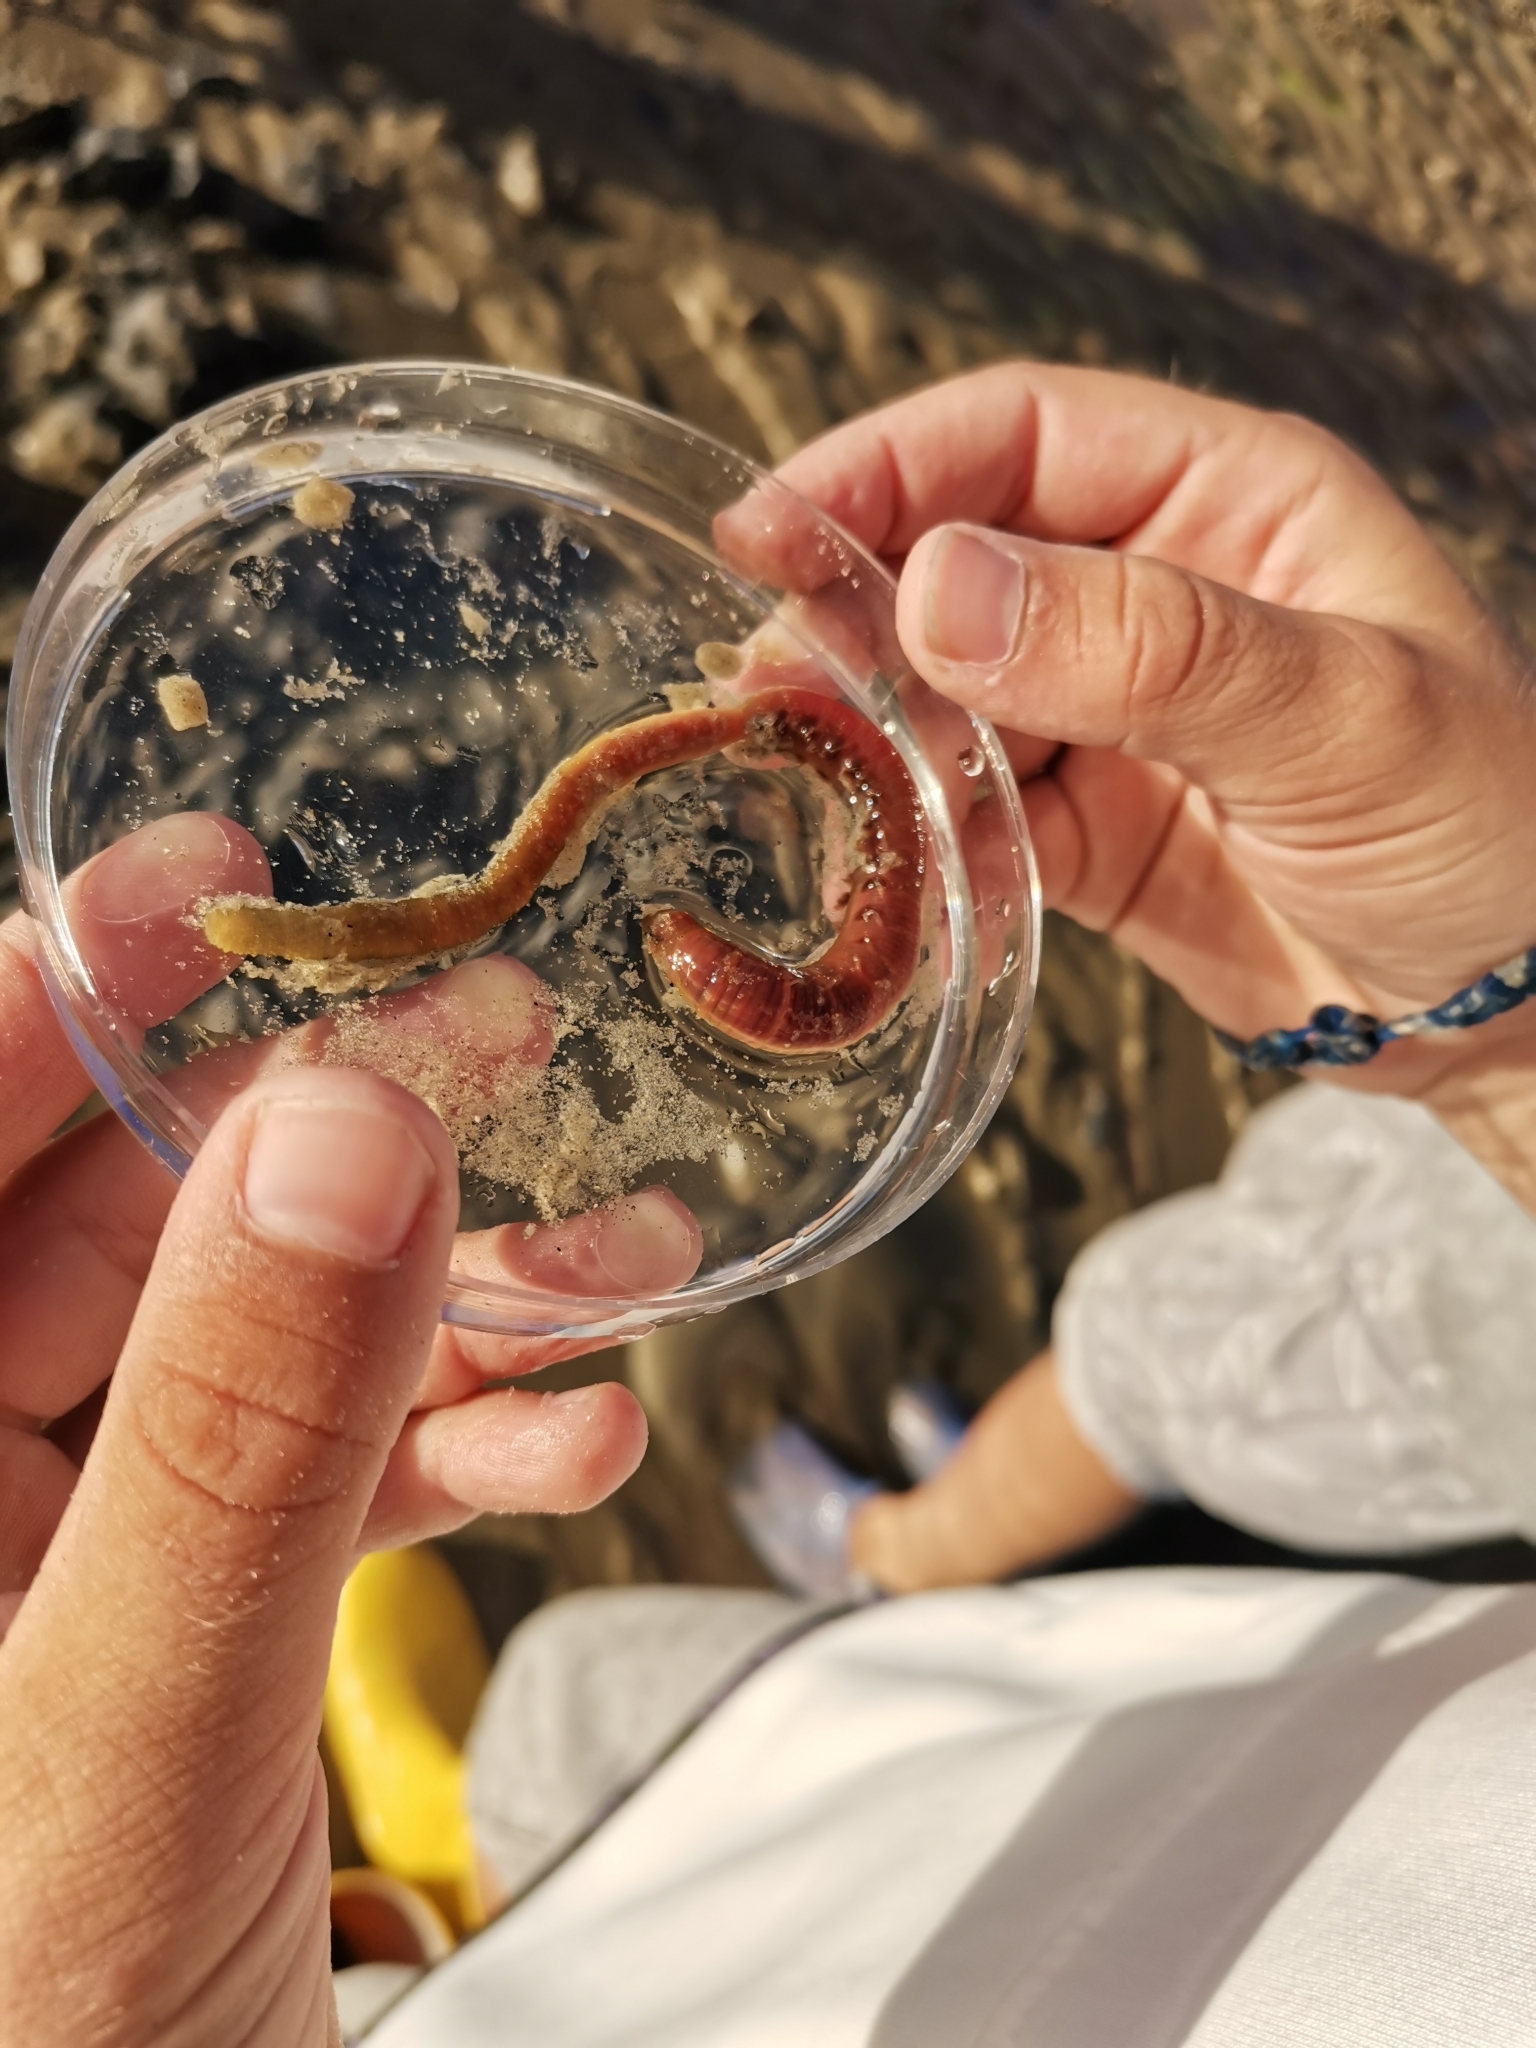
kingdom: Animalia
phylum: Annelida
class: Clitellata
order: Crassiclitellata
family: Lumbricidae
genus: Lumbricus
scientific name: Lumbricus terrestris
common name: Common earthworm
